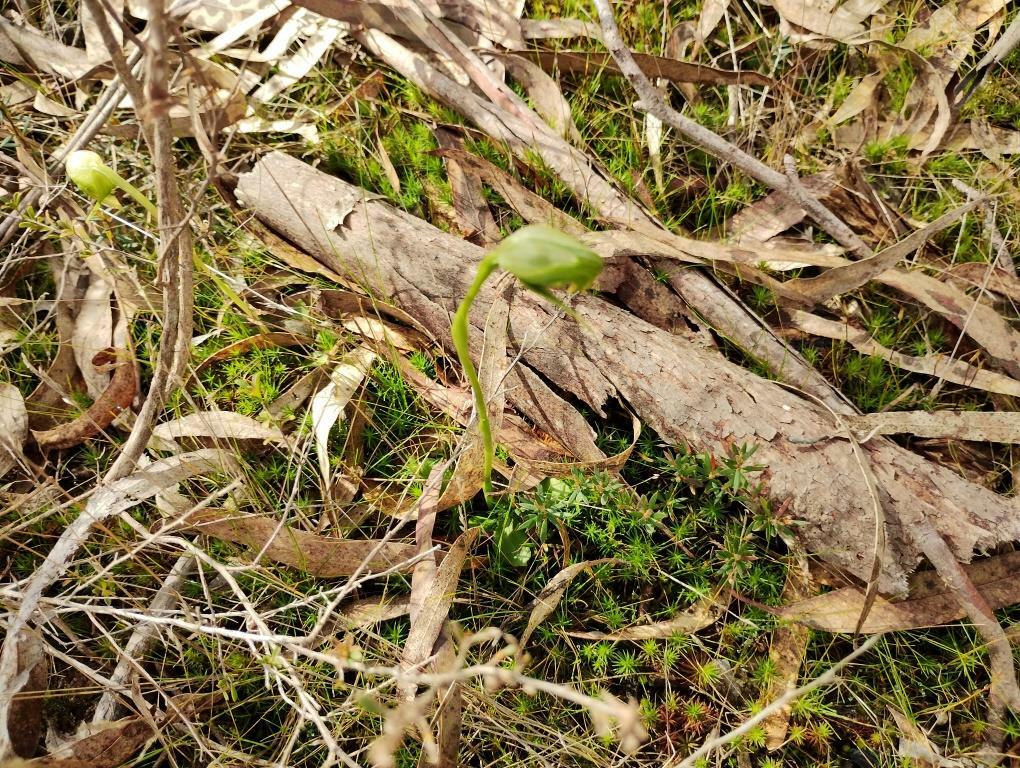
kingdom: Plantae
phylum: Tracheophyta
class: Liliopsida
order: Asparagales
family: Orchidaceae
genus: Pterostylis
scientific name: Pterostylis nutans
